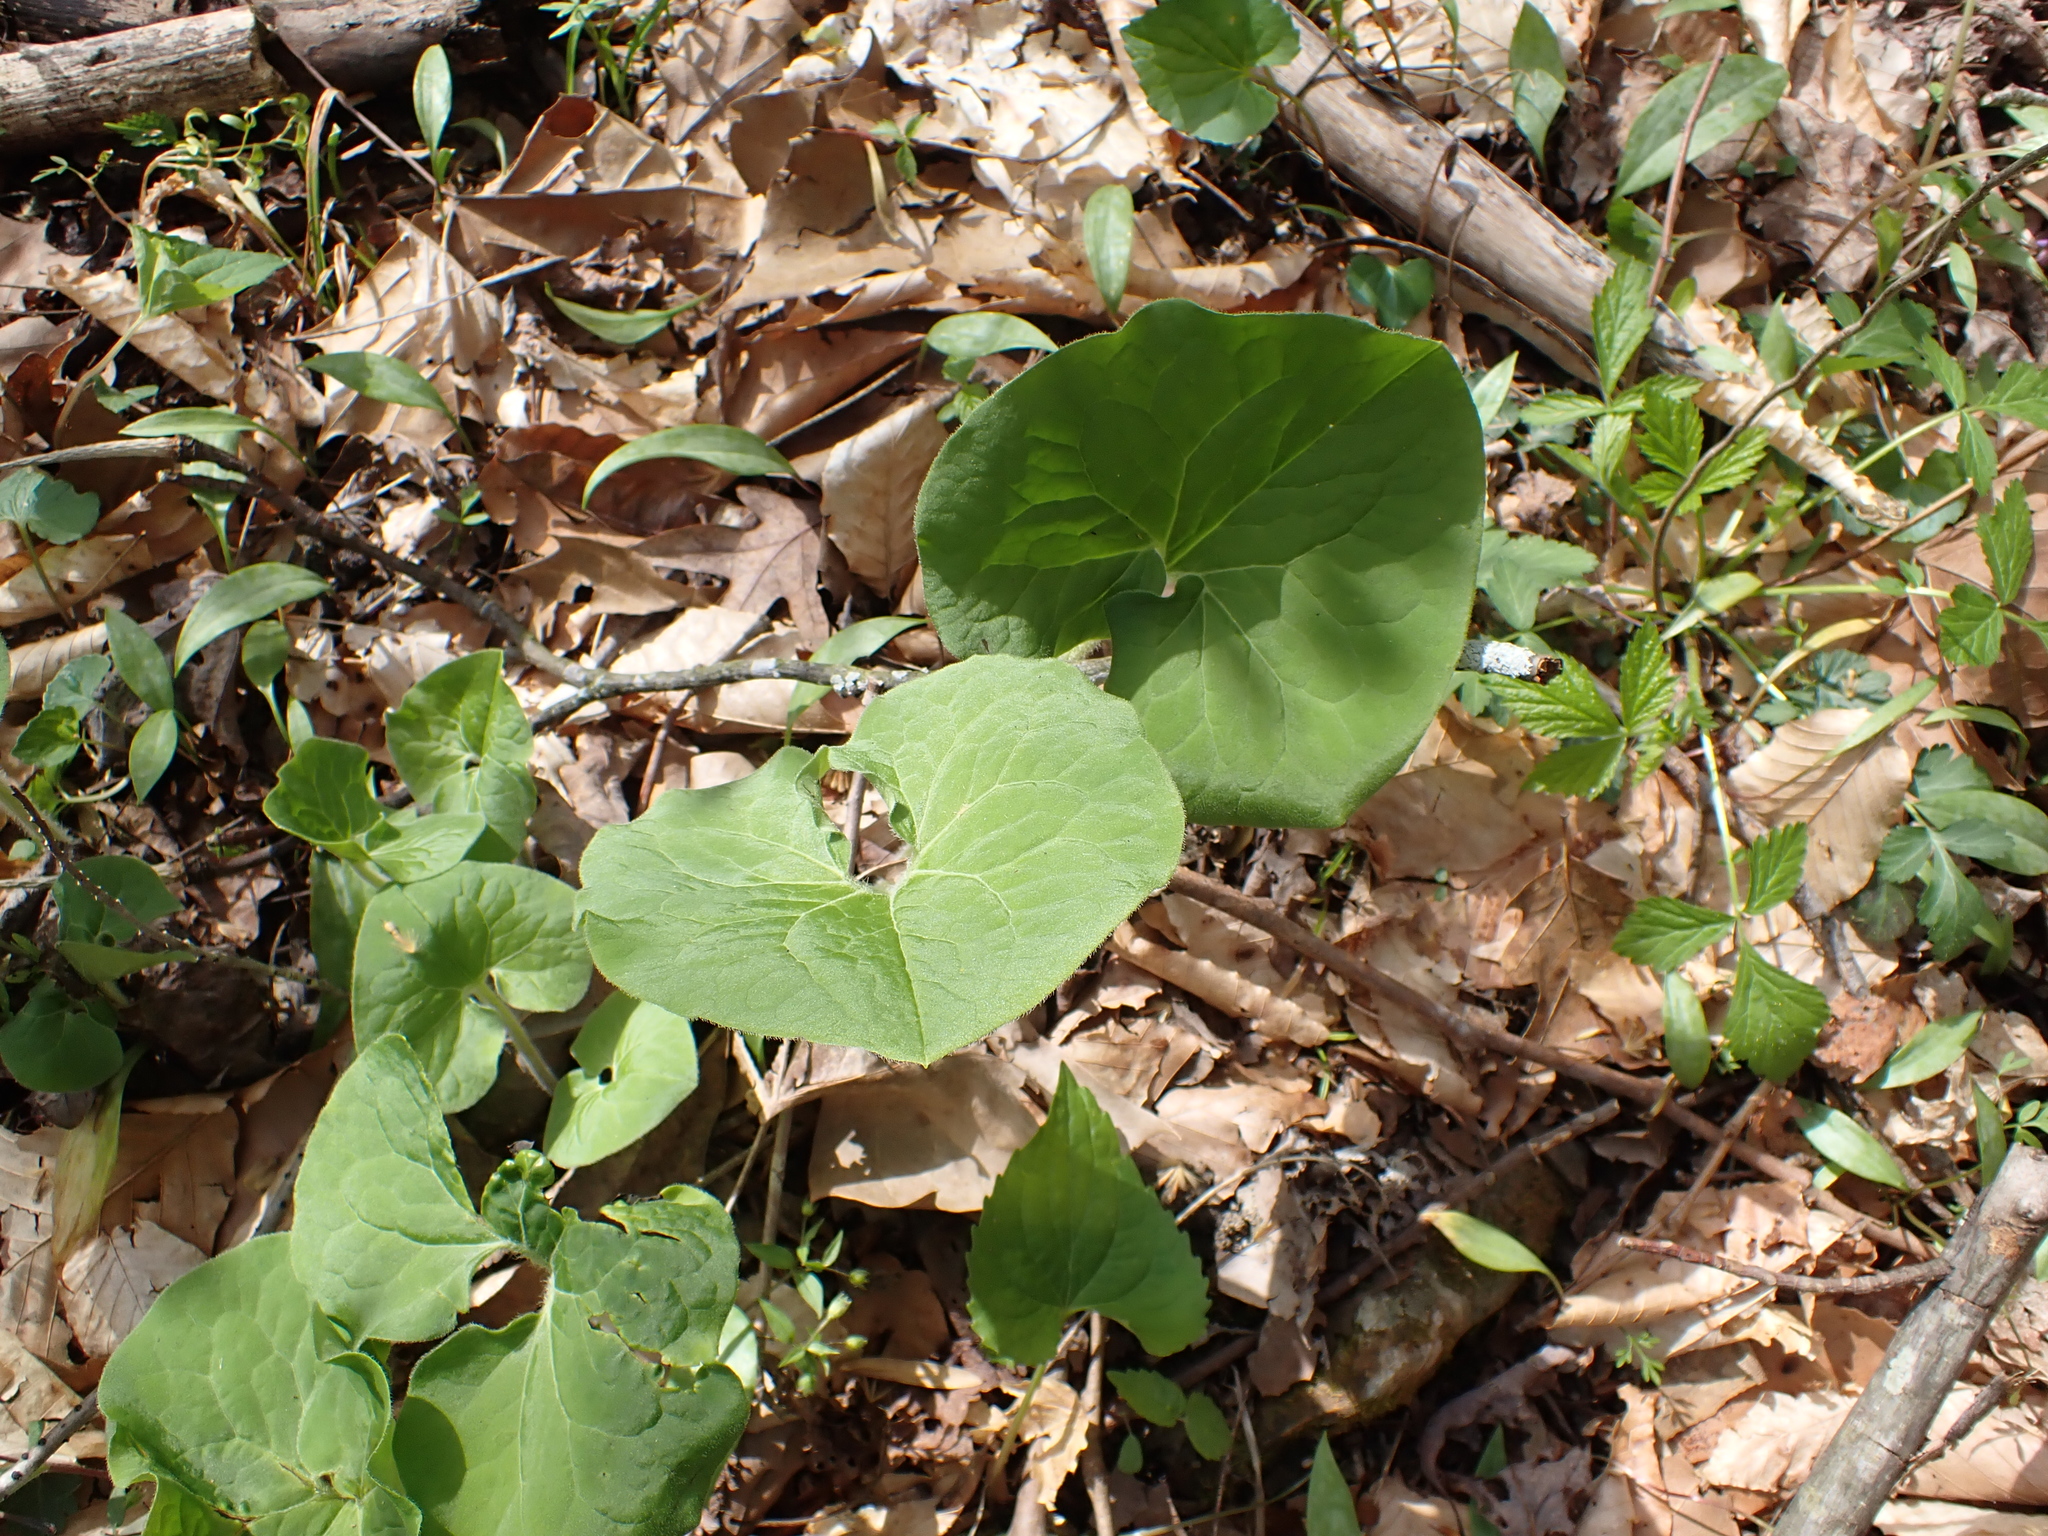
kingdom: Plantae
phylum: Tracheophyta
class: Magnoliopsida
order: Piperales
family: Aristolochiaceae
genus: Asarum
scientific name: Asarum canadense
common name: Wild ginger
